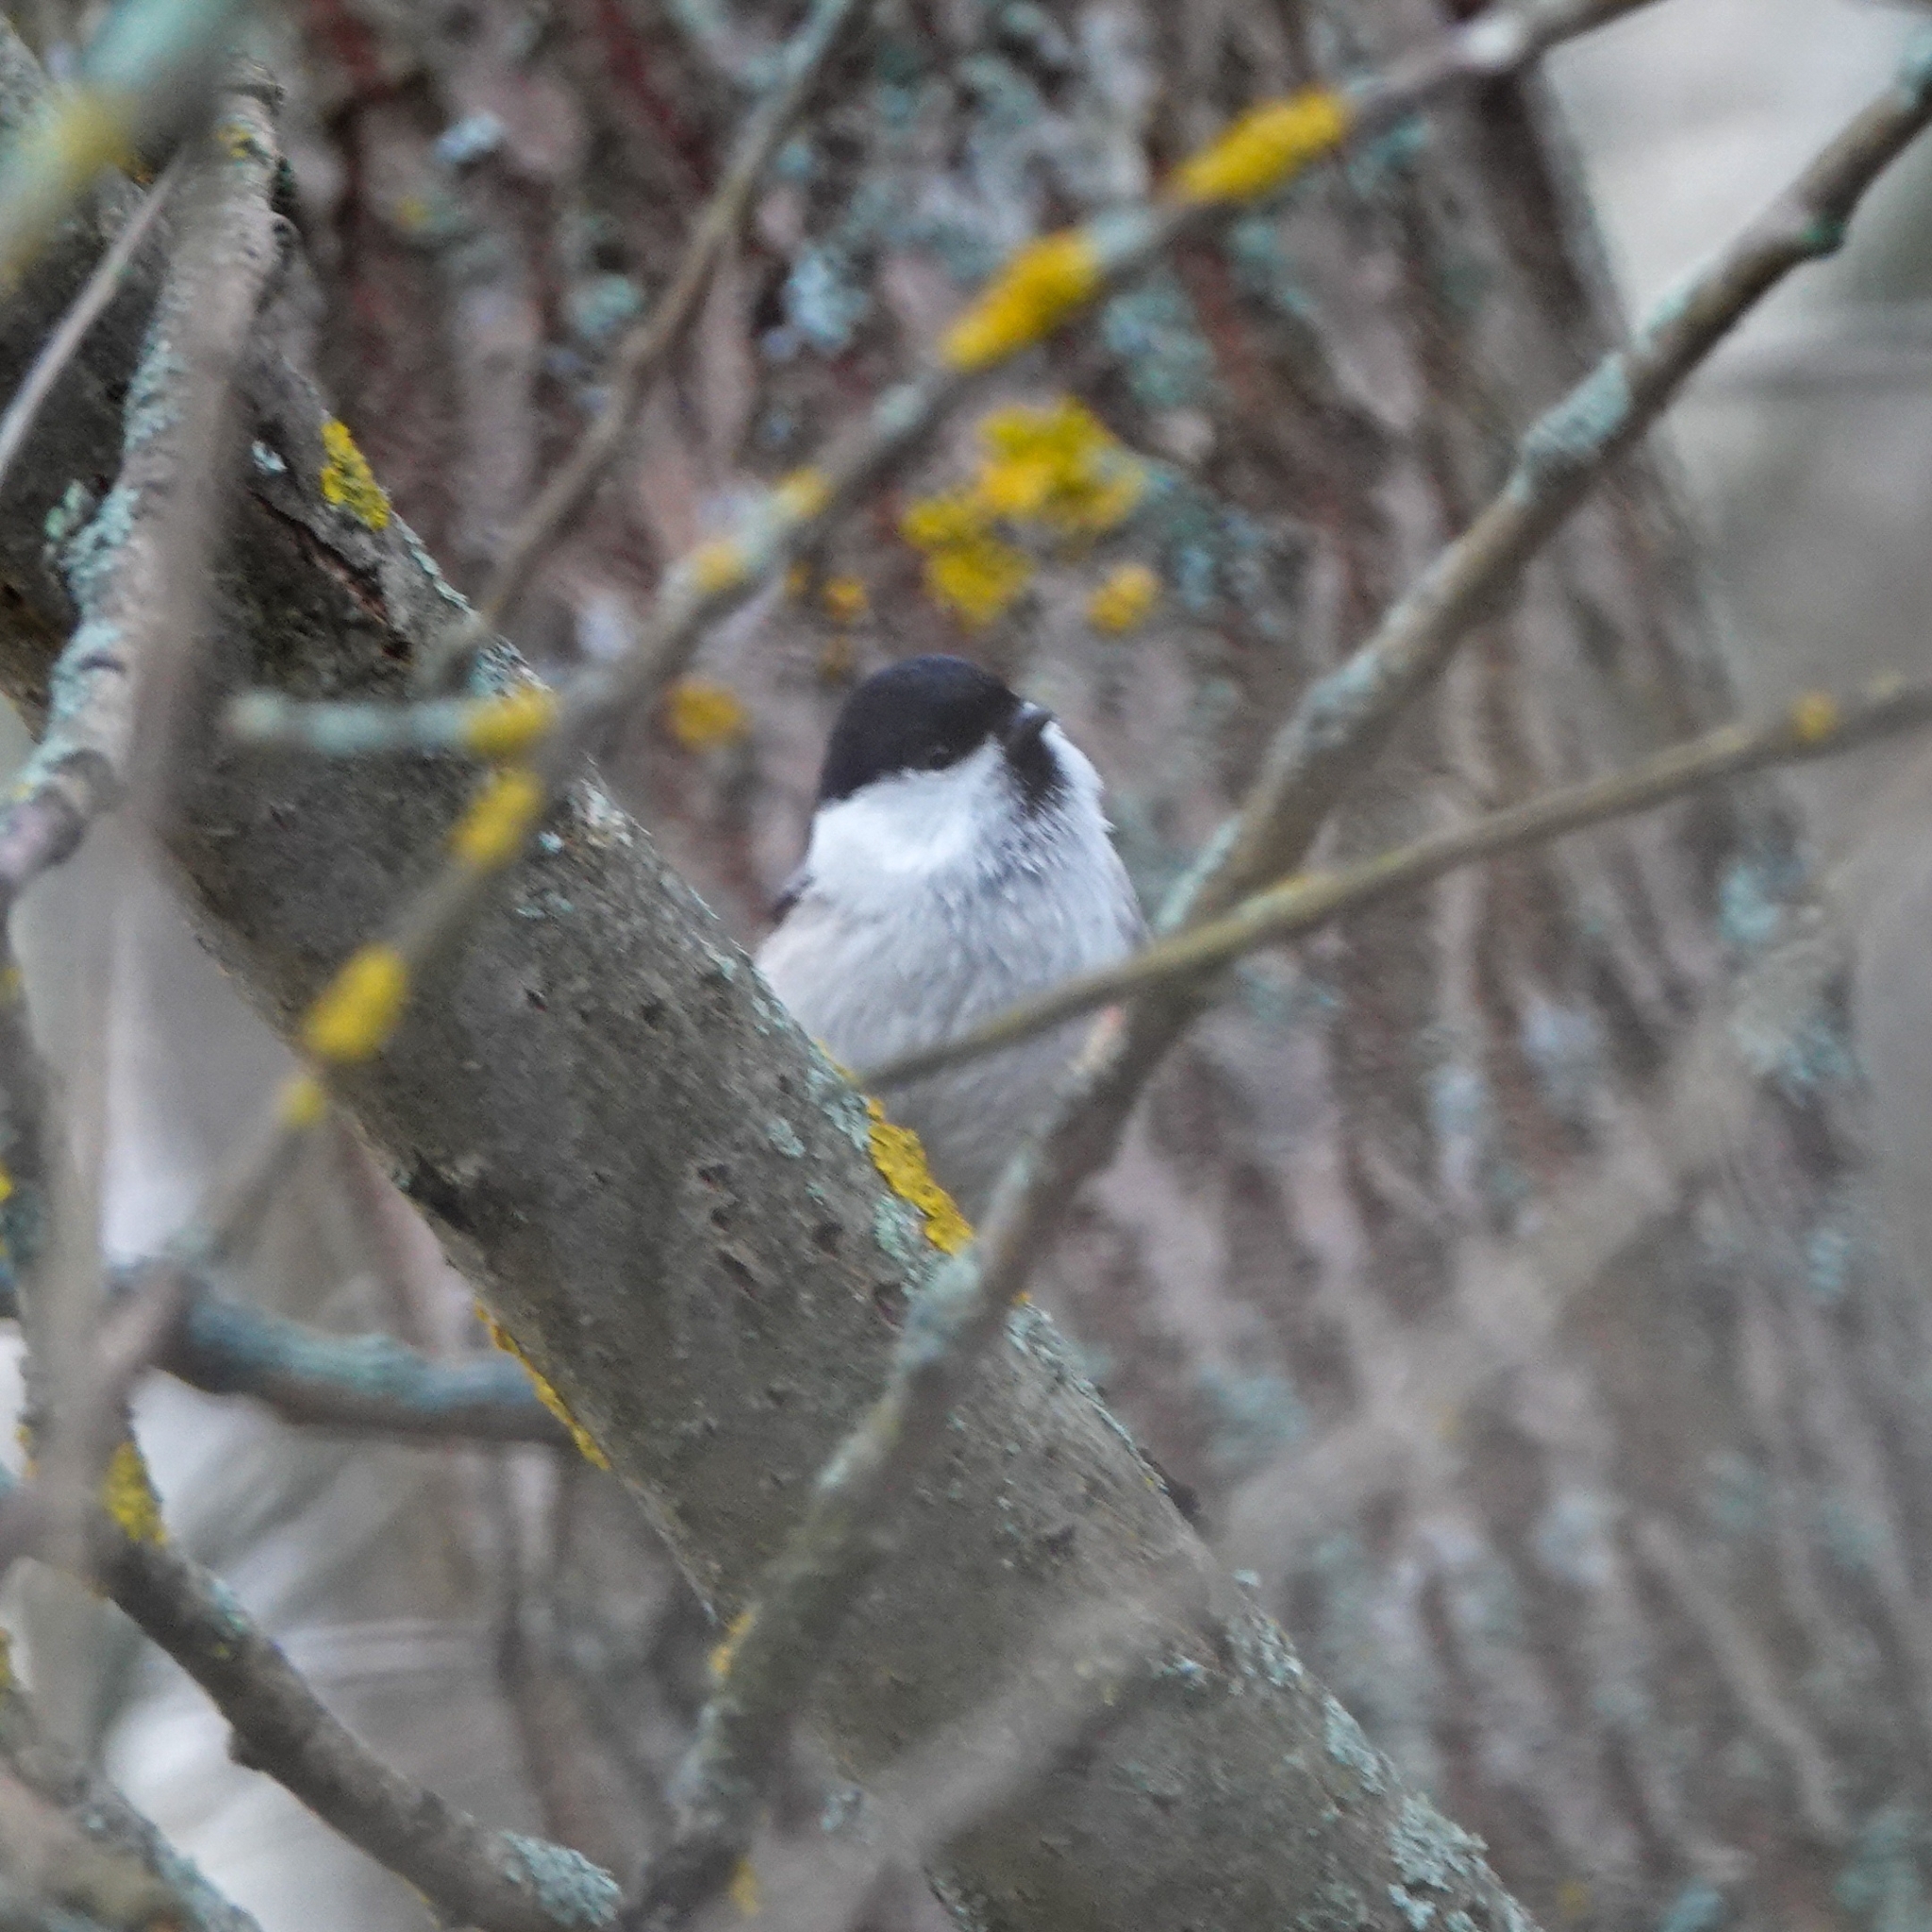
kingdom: Animalia
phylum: Chordata
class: Aves
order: Passeriformes
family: Paridae
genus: Poecile
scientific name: Poecile montanus
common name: Willow tit
